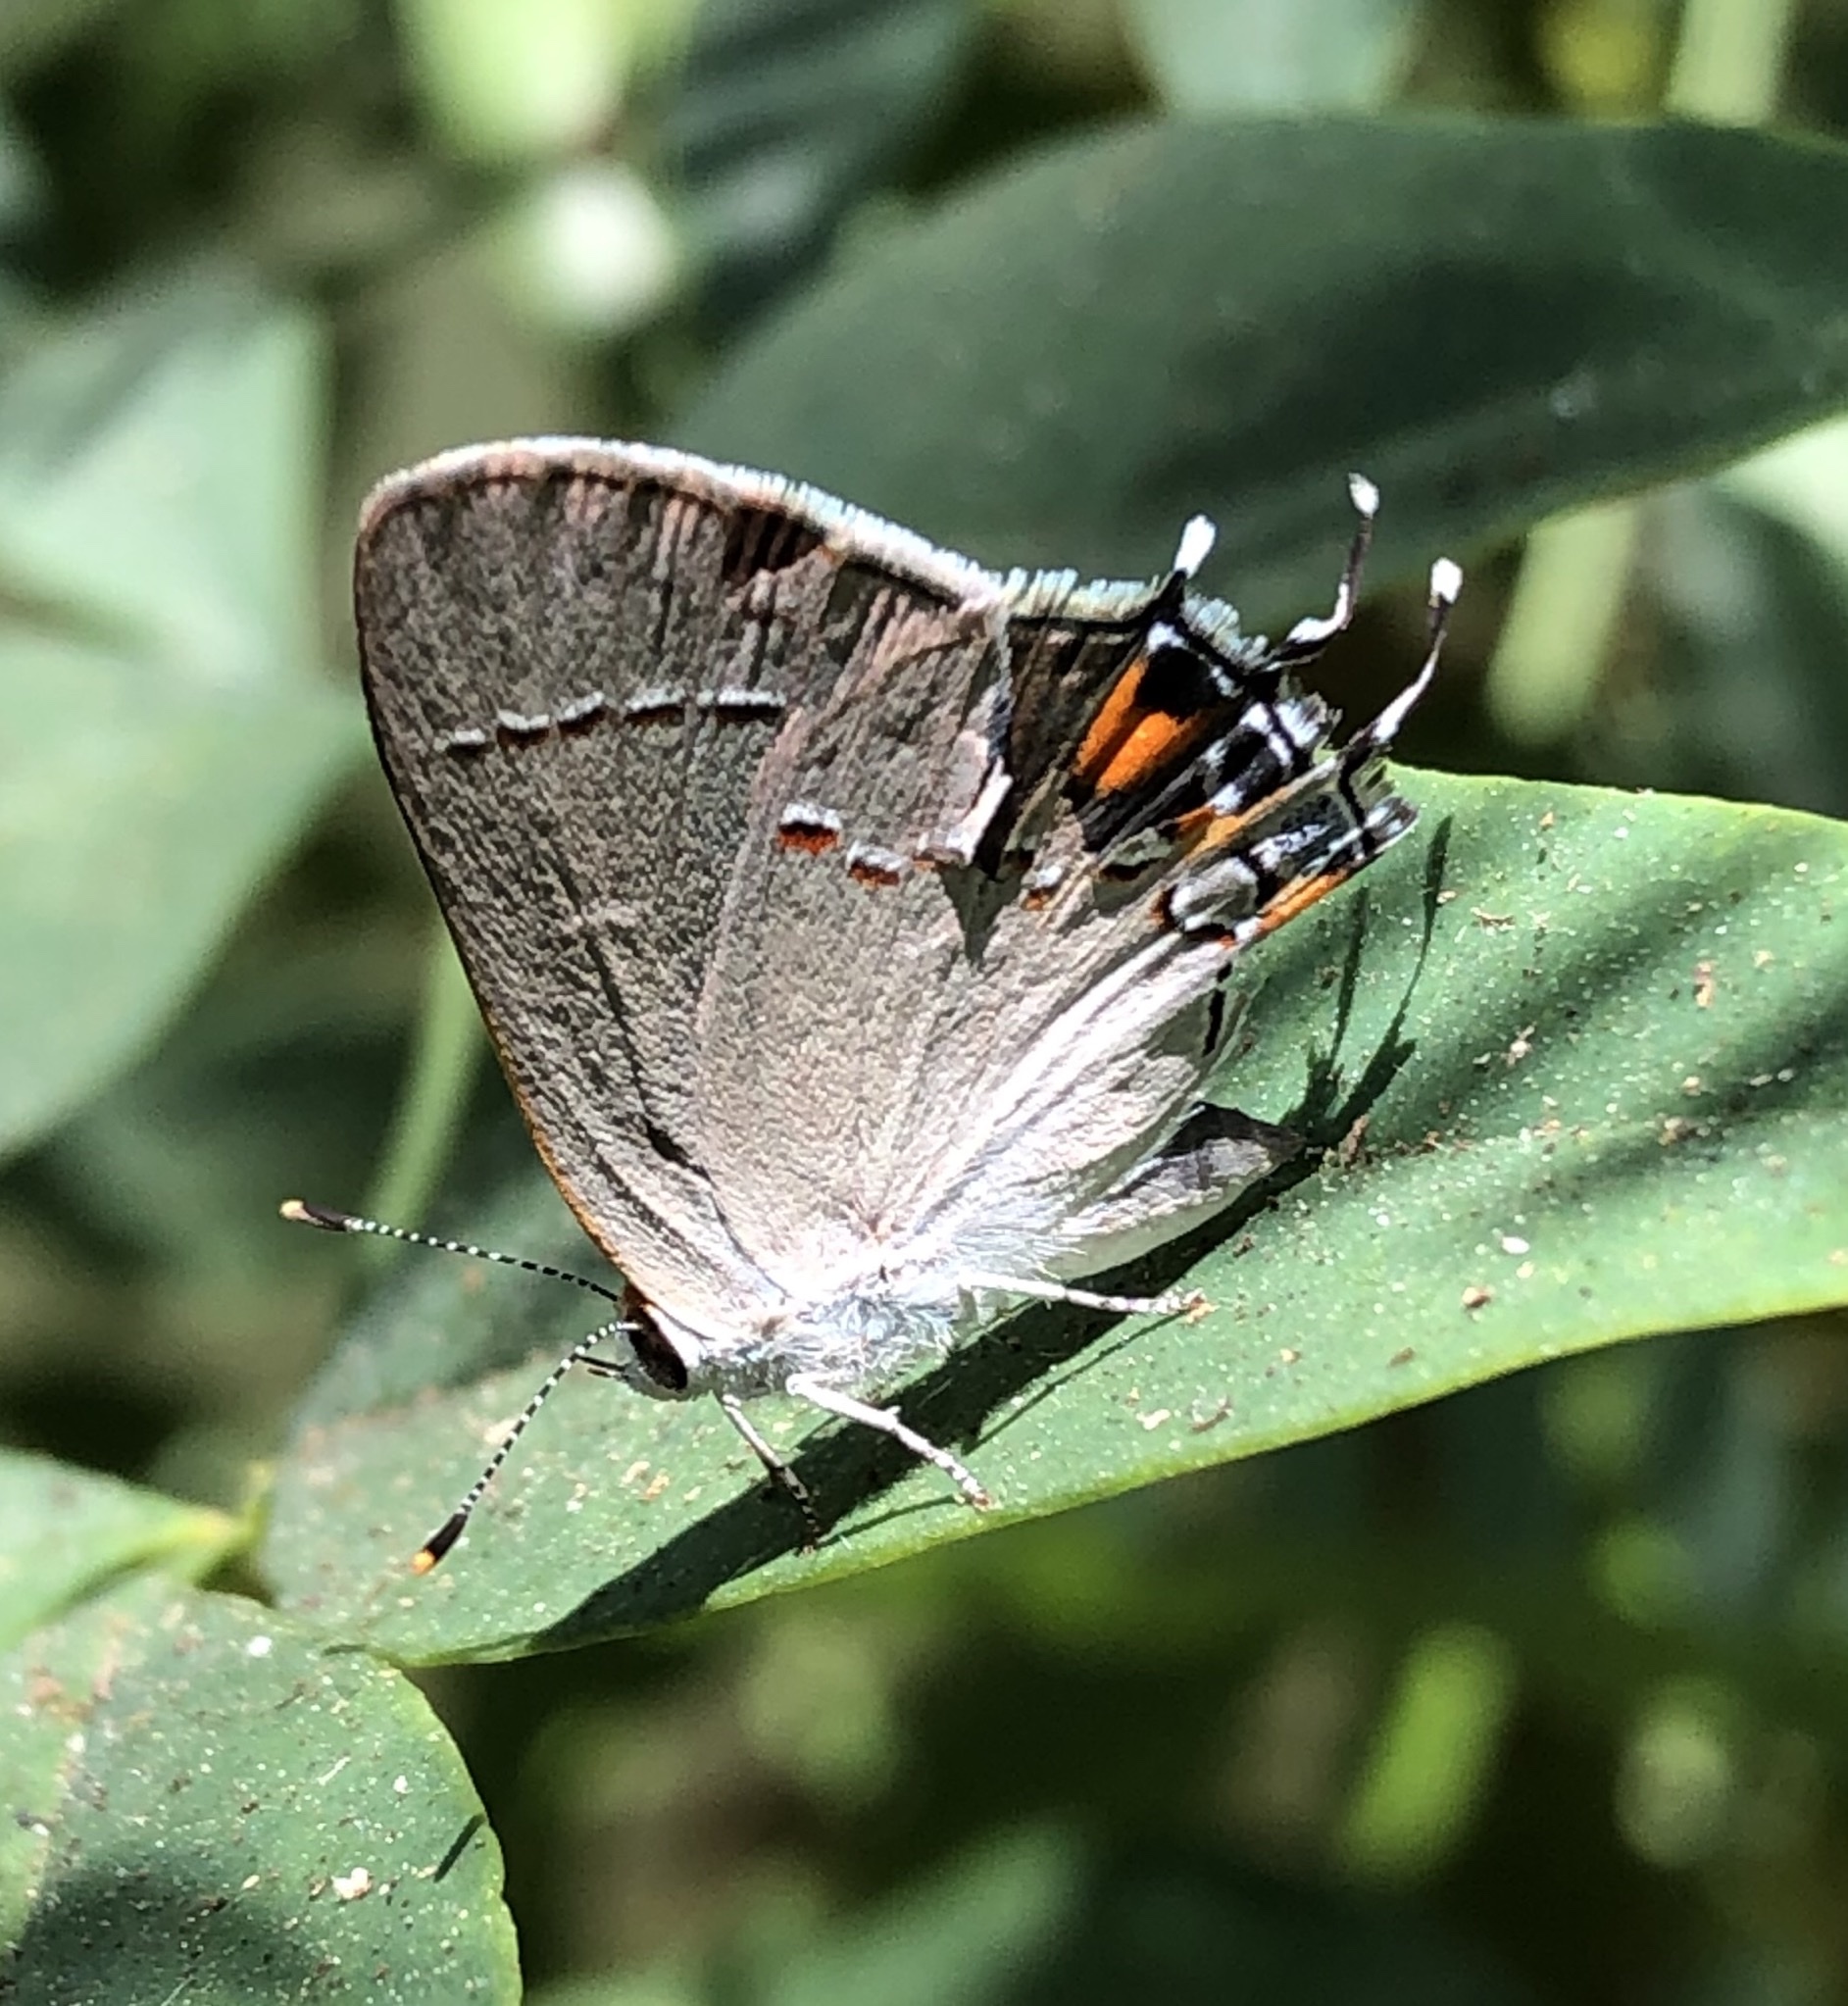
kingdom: Animalia
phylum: Arthropoda
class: Insecta
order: Lepidoptera
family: Lycaenidae
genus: Strymon
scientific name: Strymon melinus
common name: Gray hairstreak
